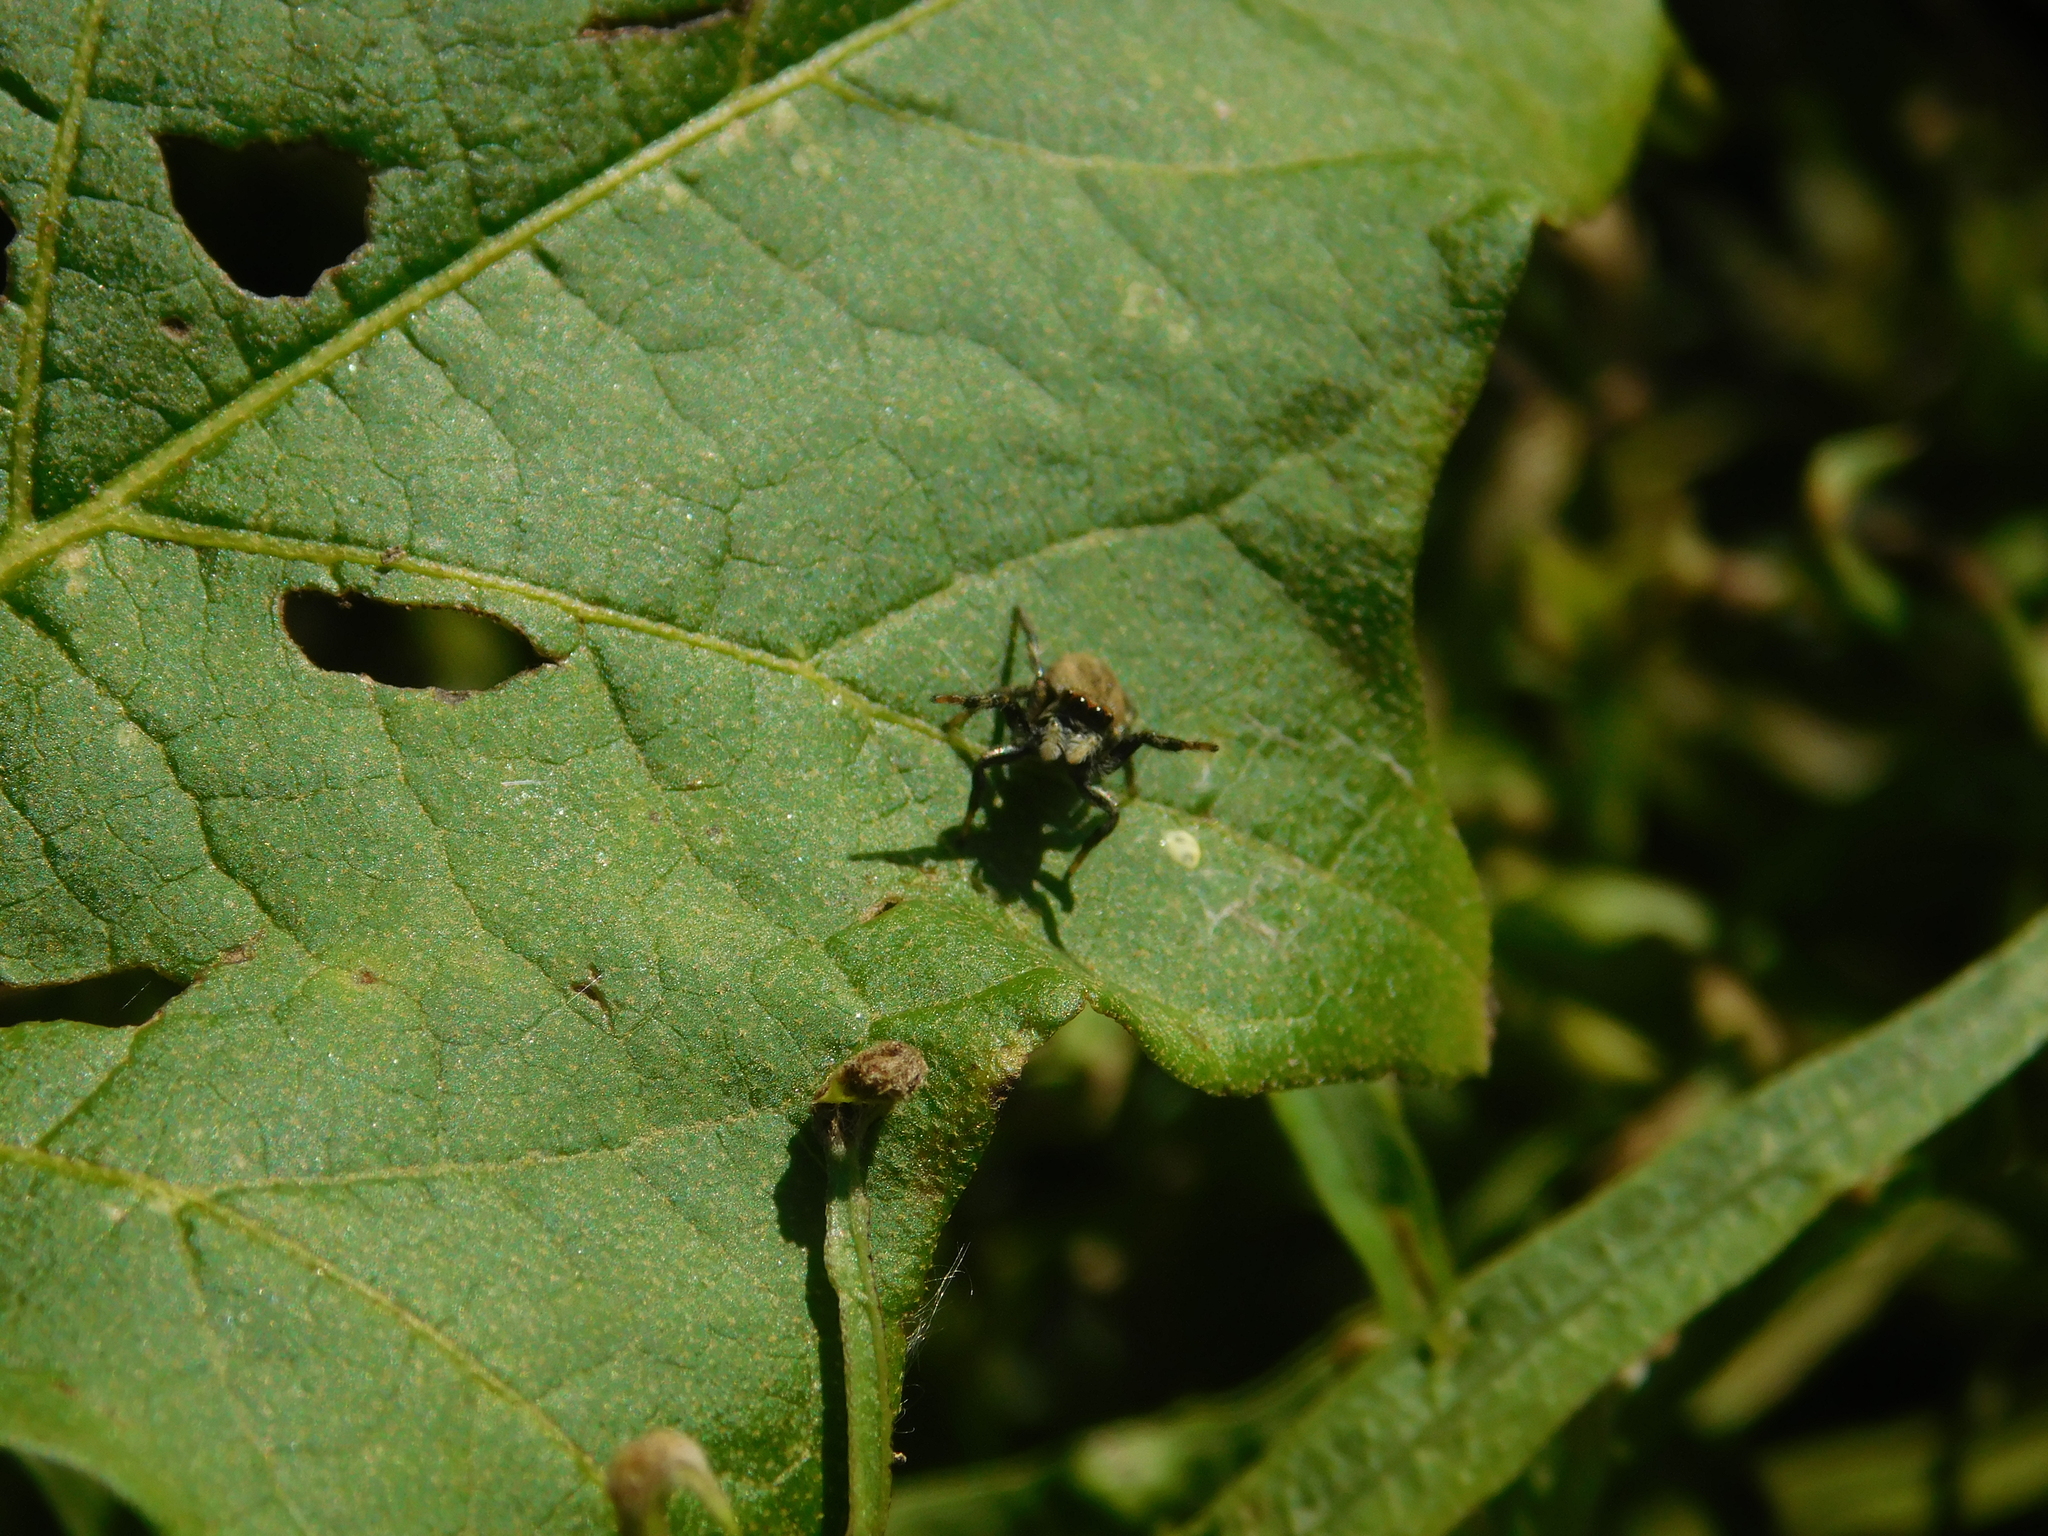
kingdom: Animalia
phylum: Arthropoda
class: Arachnida
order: Araneae
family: Salticidae
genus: Phiale
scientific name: Phiale roburifoliata
